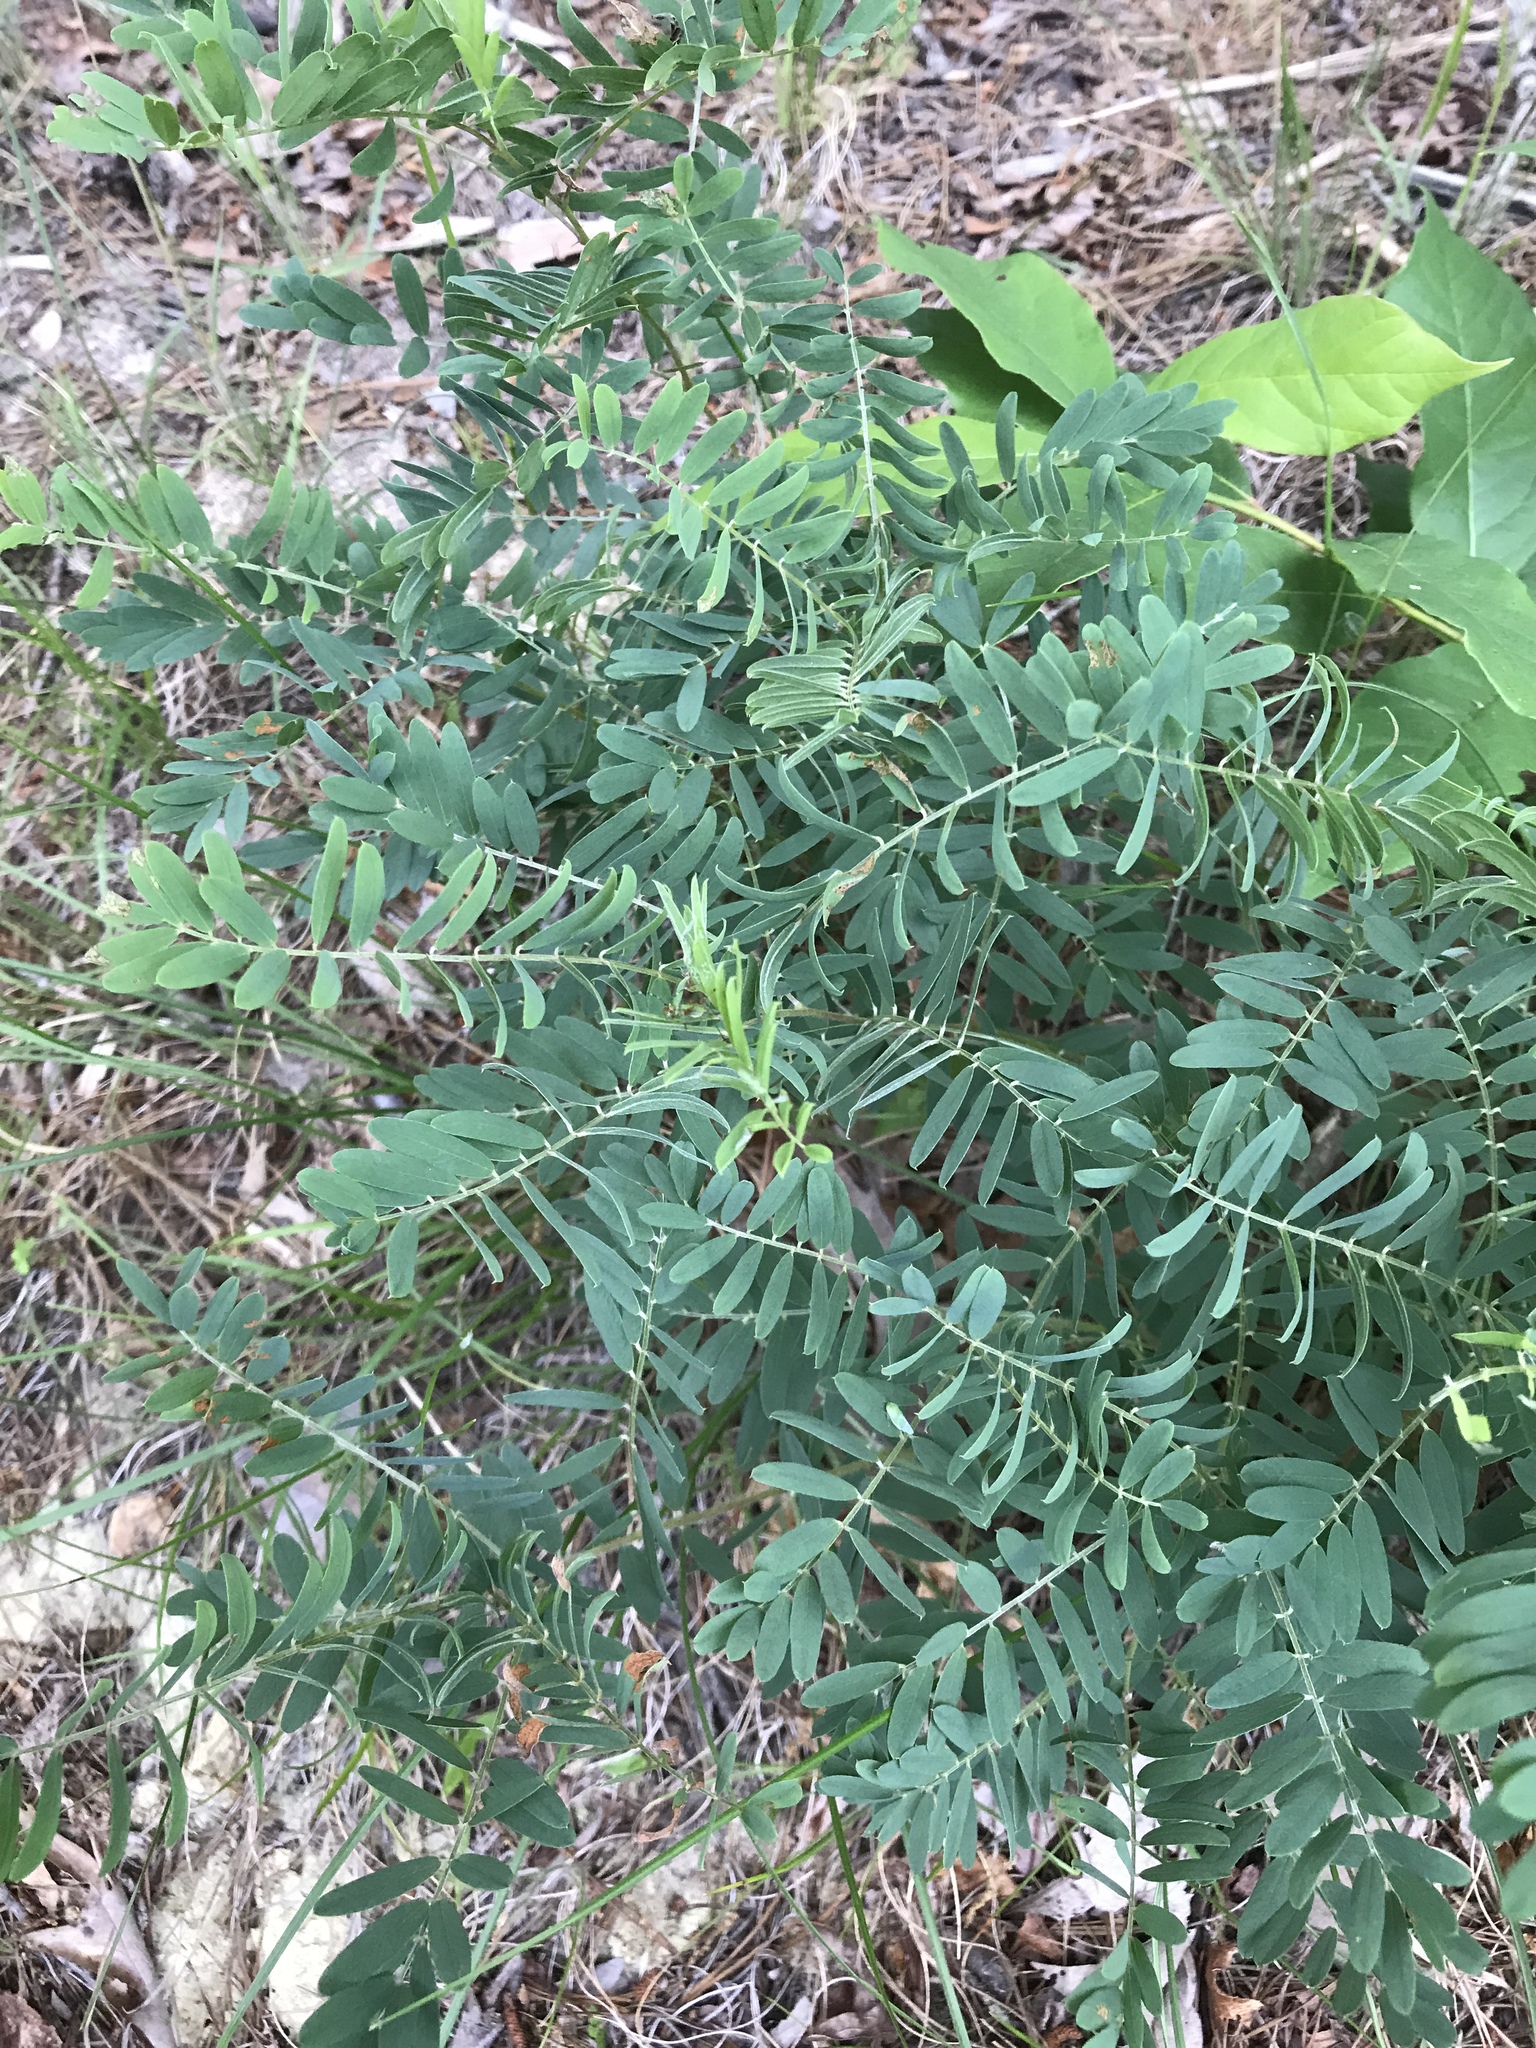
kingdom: Plantae
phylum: Tracheophyta
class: Magnoliopsida
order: Fabales
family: Fabaceae
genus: Tephrosia
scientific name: Tephrosia virginiana
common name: Rabbit-pea
